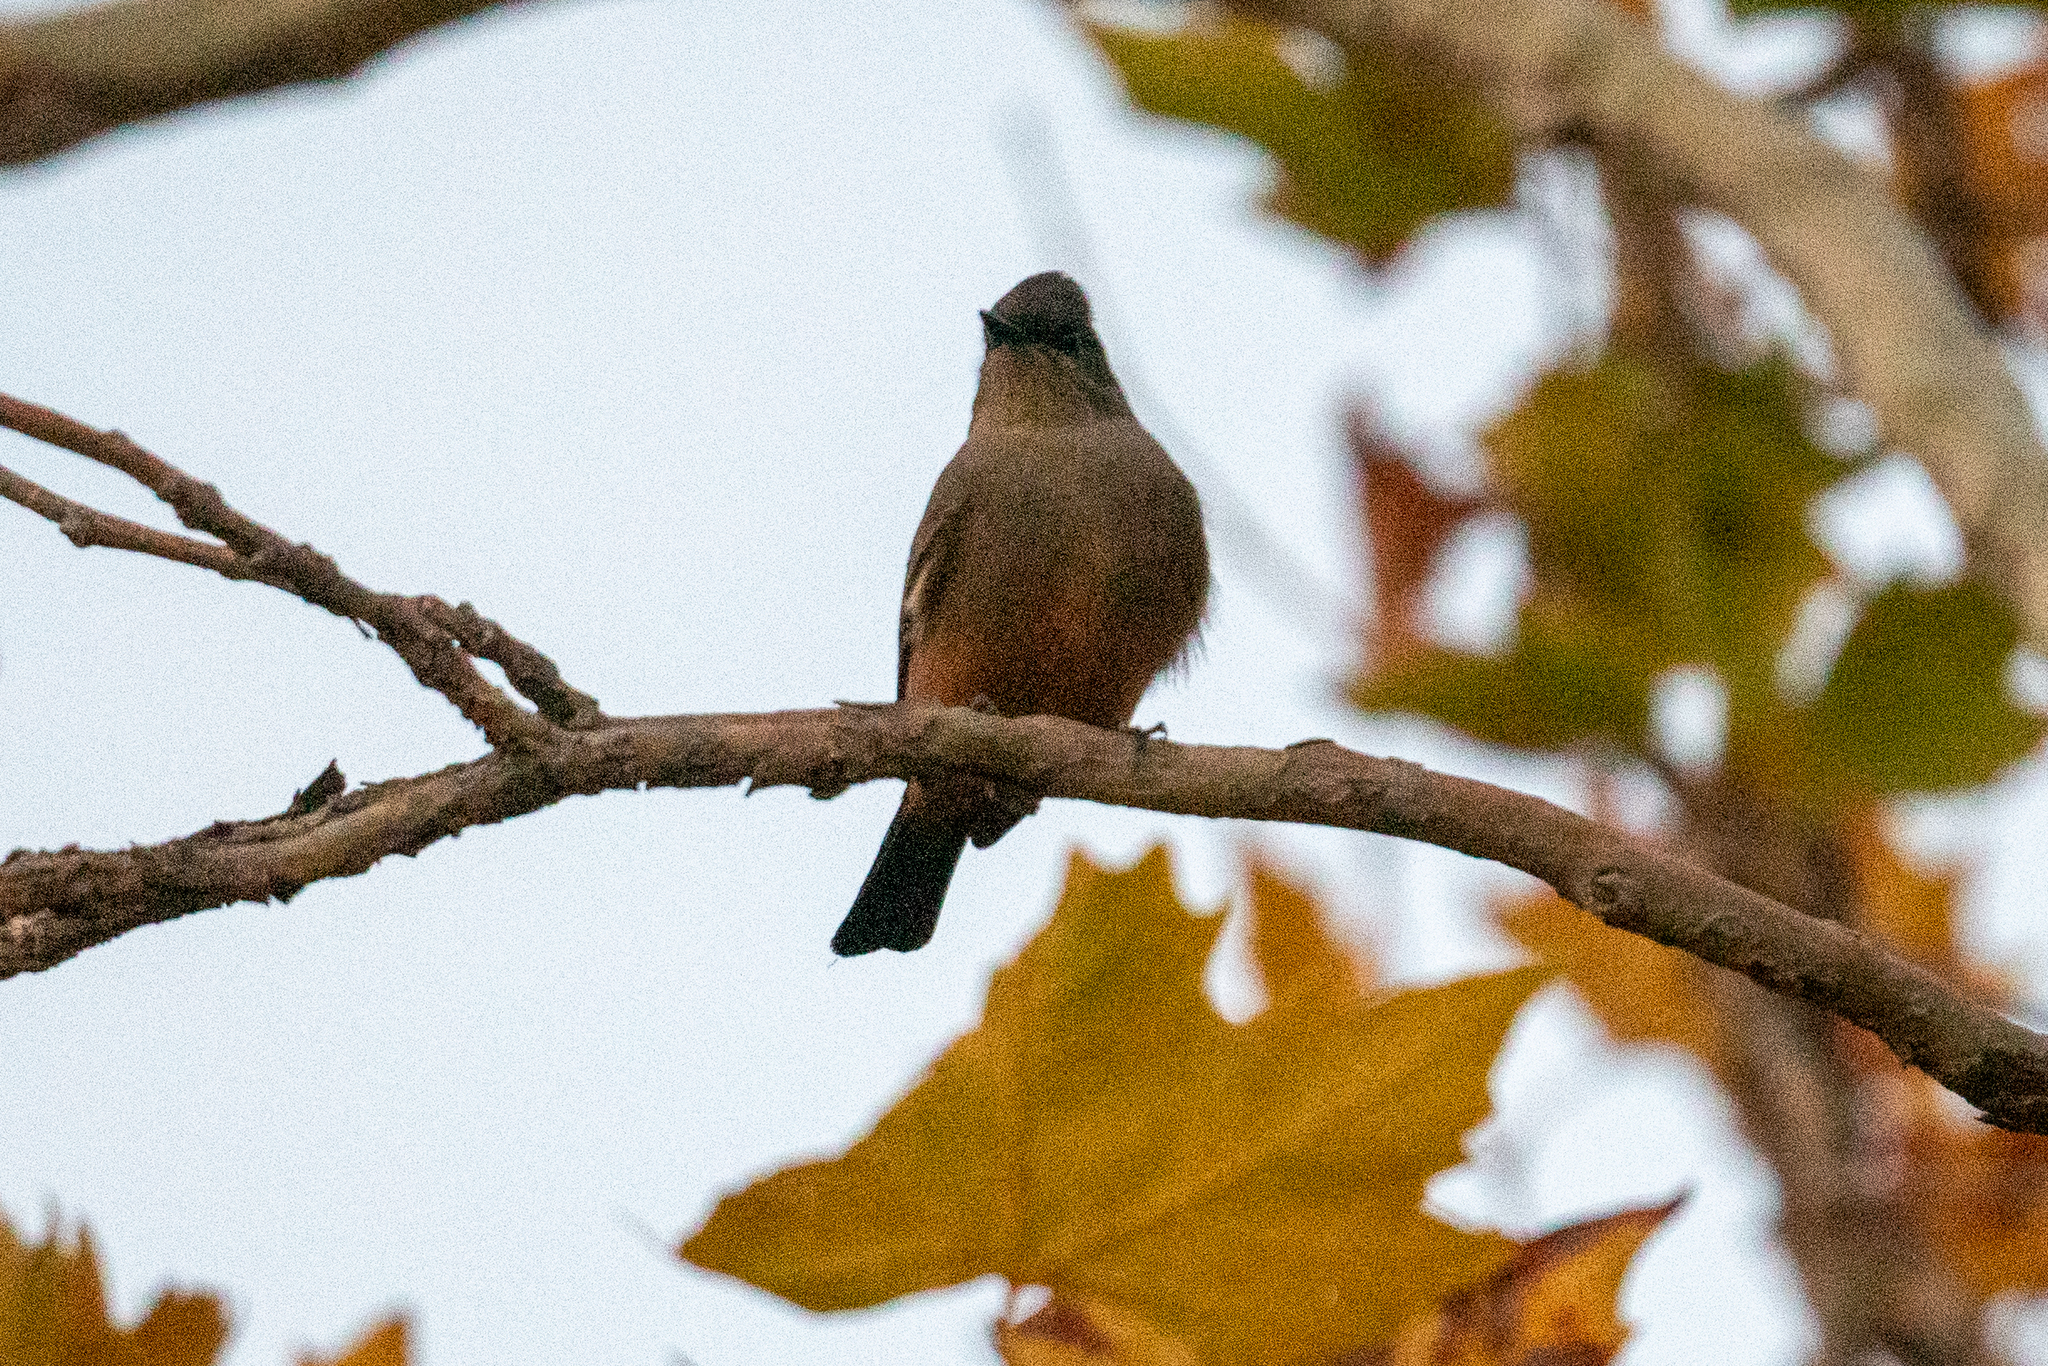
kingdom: Animalia
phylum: Chordata
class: Aves
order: Passeriformes
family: Tyrannidae
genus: Sayornis
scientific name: Sayornis saya
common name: Say's phoebe
